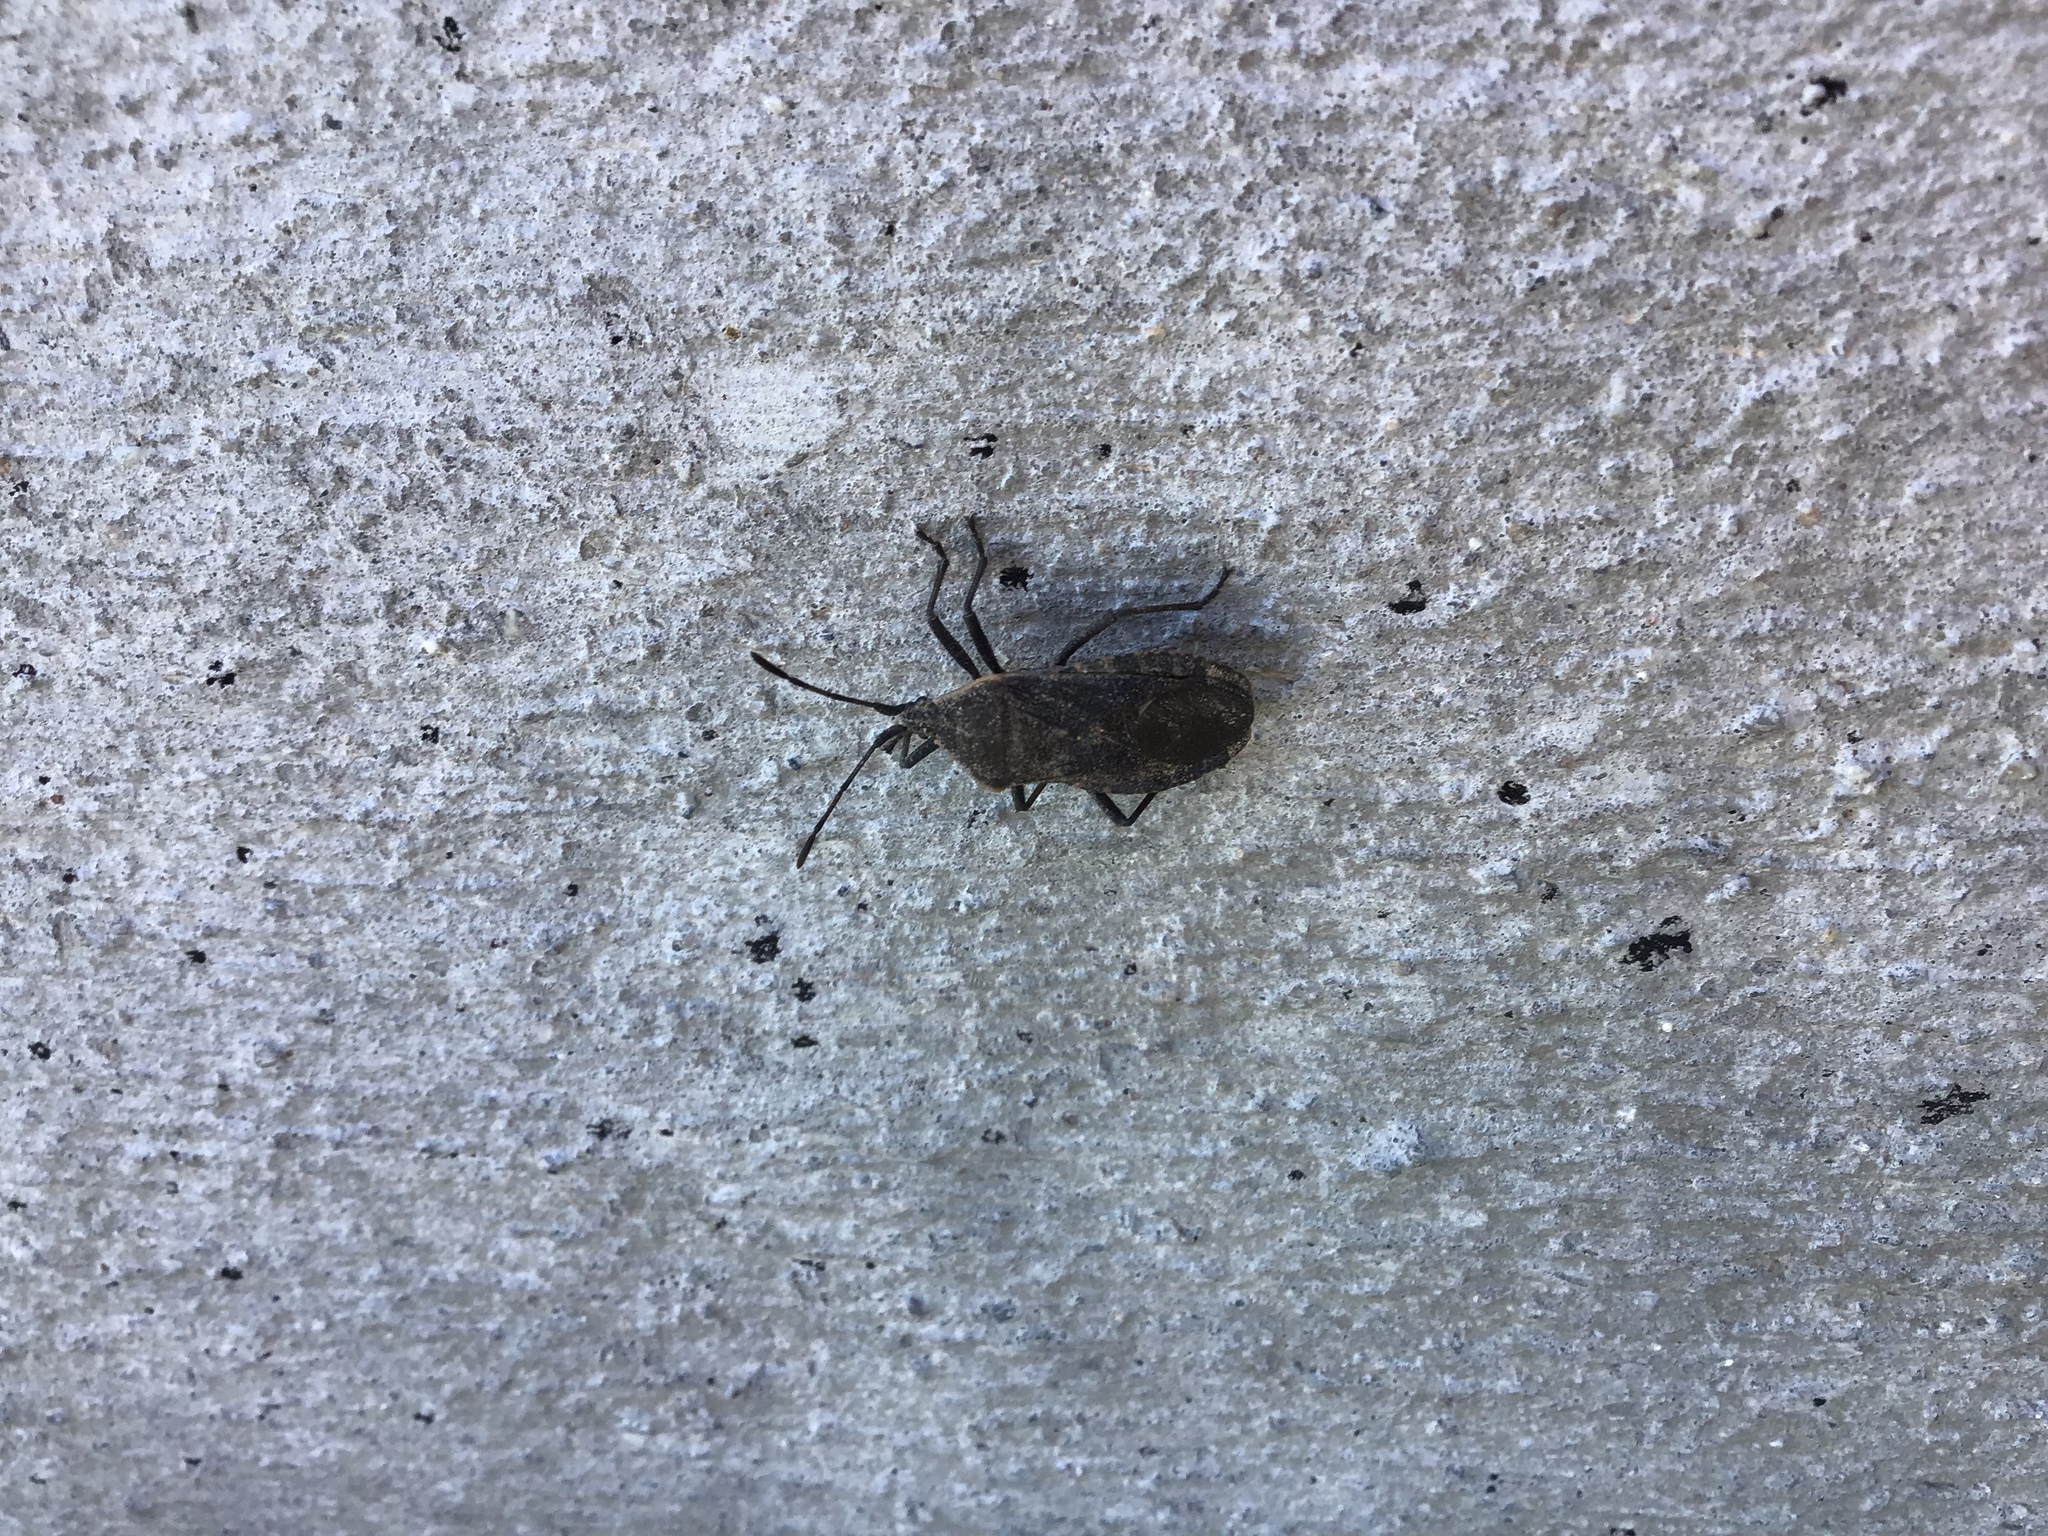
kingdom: Animalia
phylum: Arthropoda
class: Insecta
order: Hemiptera
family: Coreidae
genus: Anasa
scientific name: Anasa tristis
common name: Squash bug
